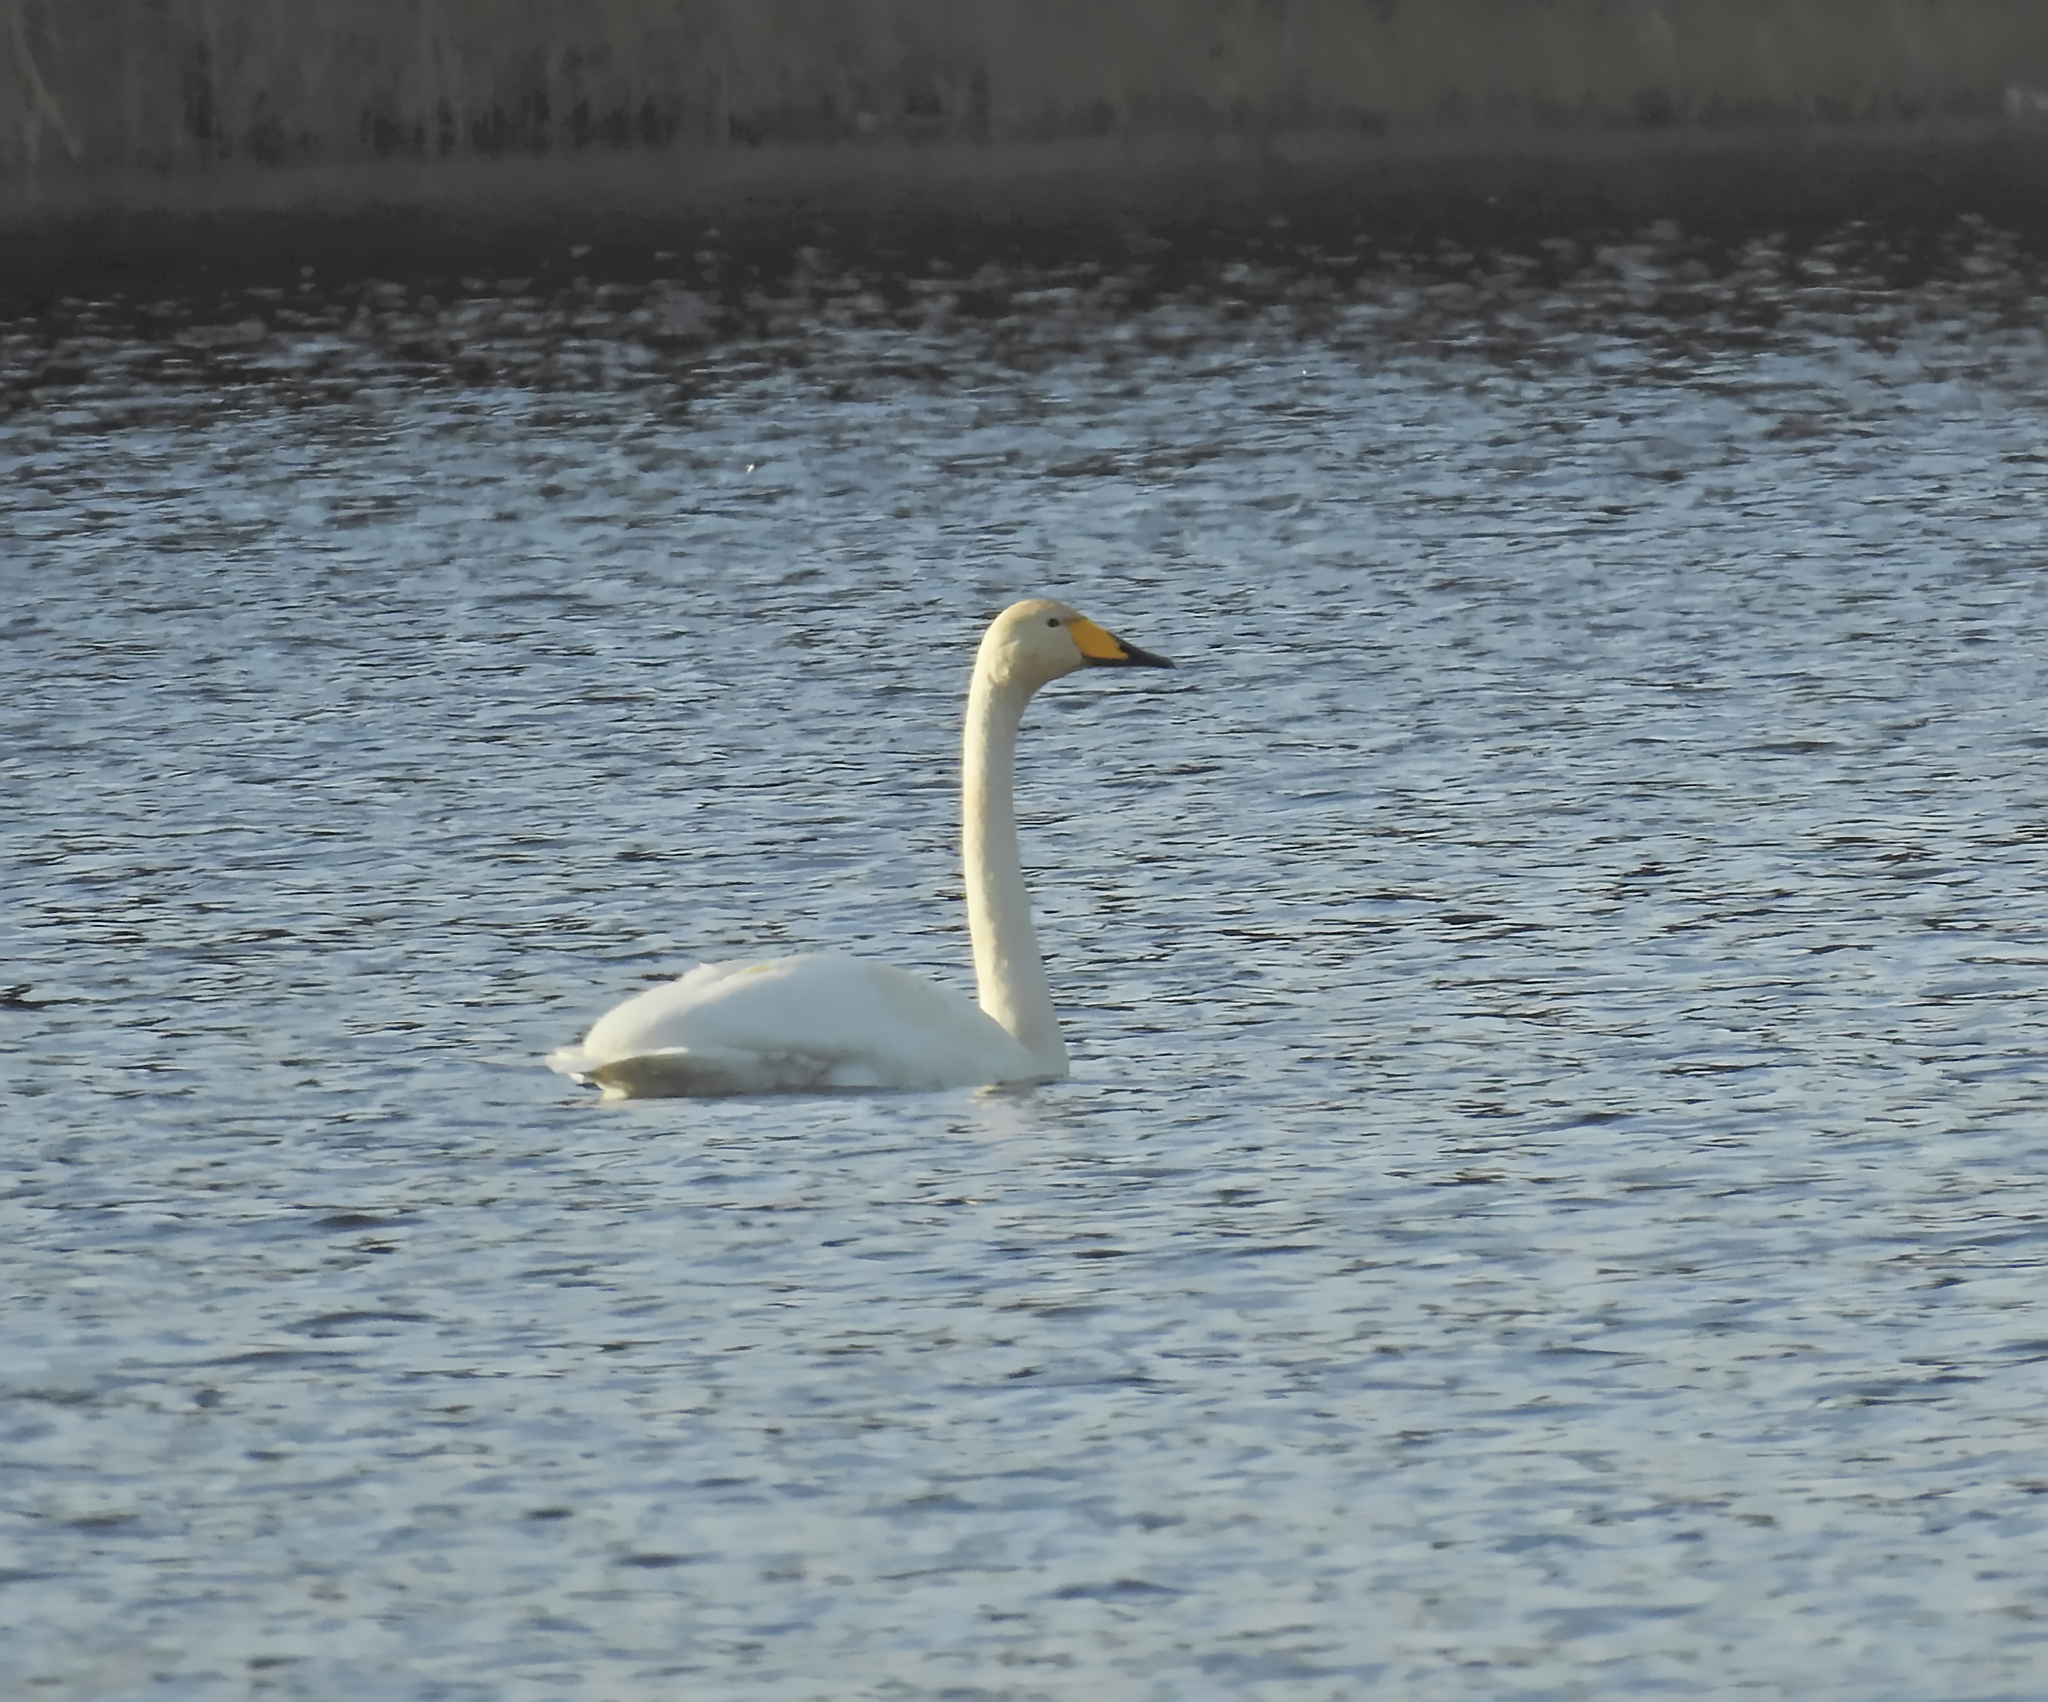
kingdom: Animalia
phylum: Chordata
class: Aves
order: Anseriformes
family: Anatidae
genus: Cygnus
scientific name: Cygnus cygnus
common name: Whooper swan
